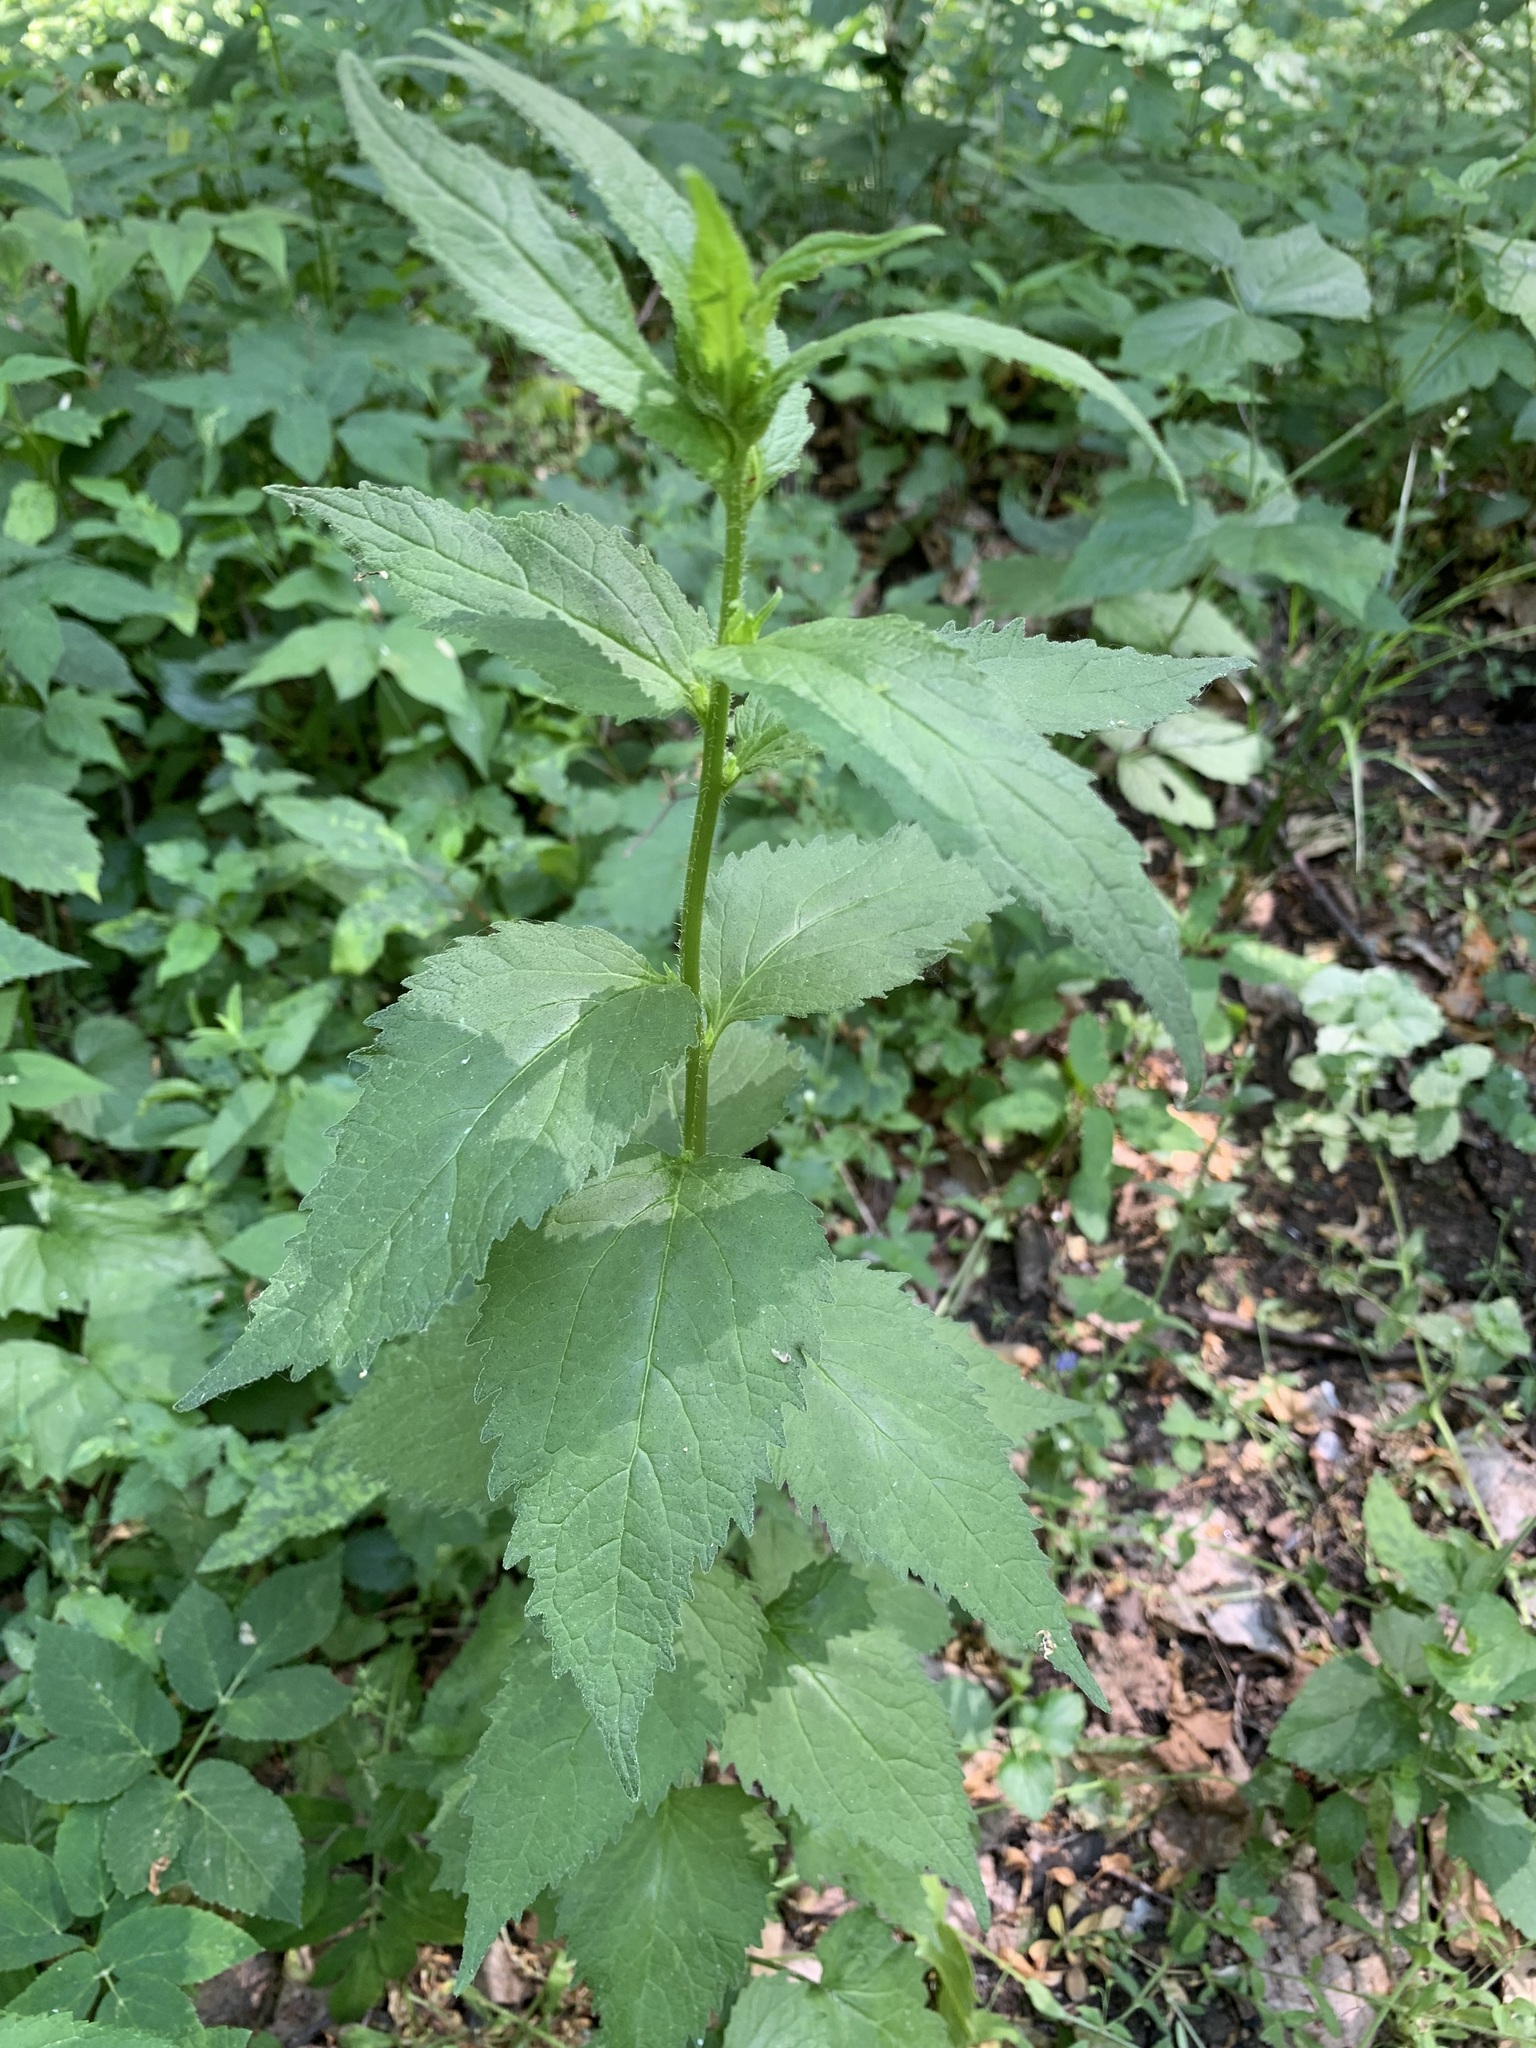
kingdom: Plantae
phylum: Tracheophyta
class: Magnoliopsida
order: Asterales
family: Campanulaceae
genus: Campanula
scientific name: Campanula trachelium
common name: Nettle-leaved bellflower
